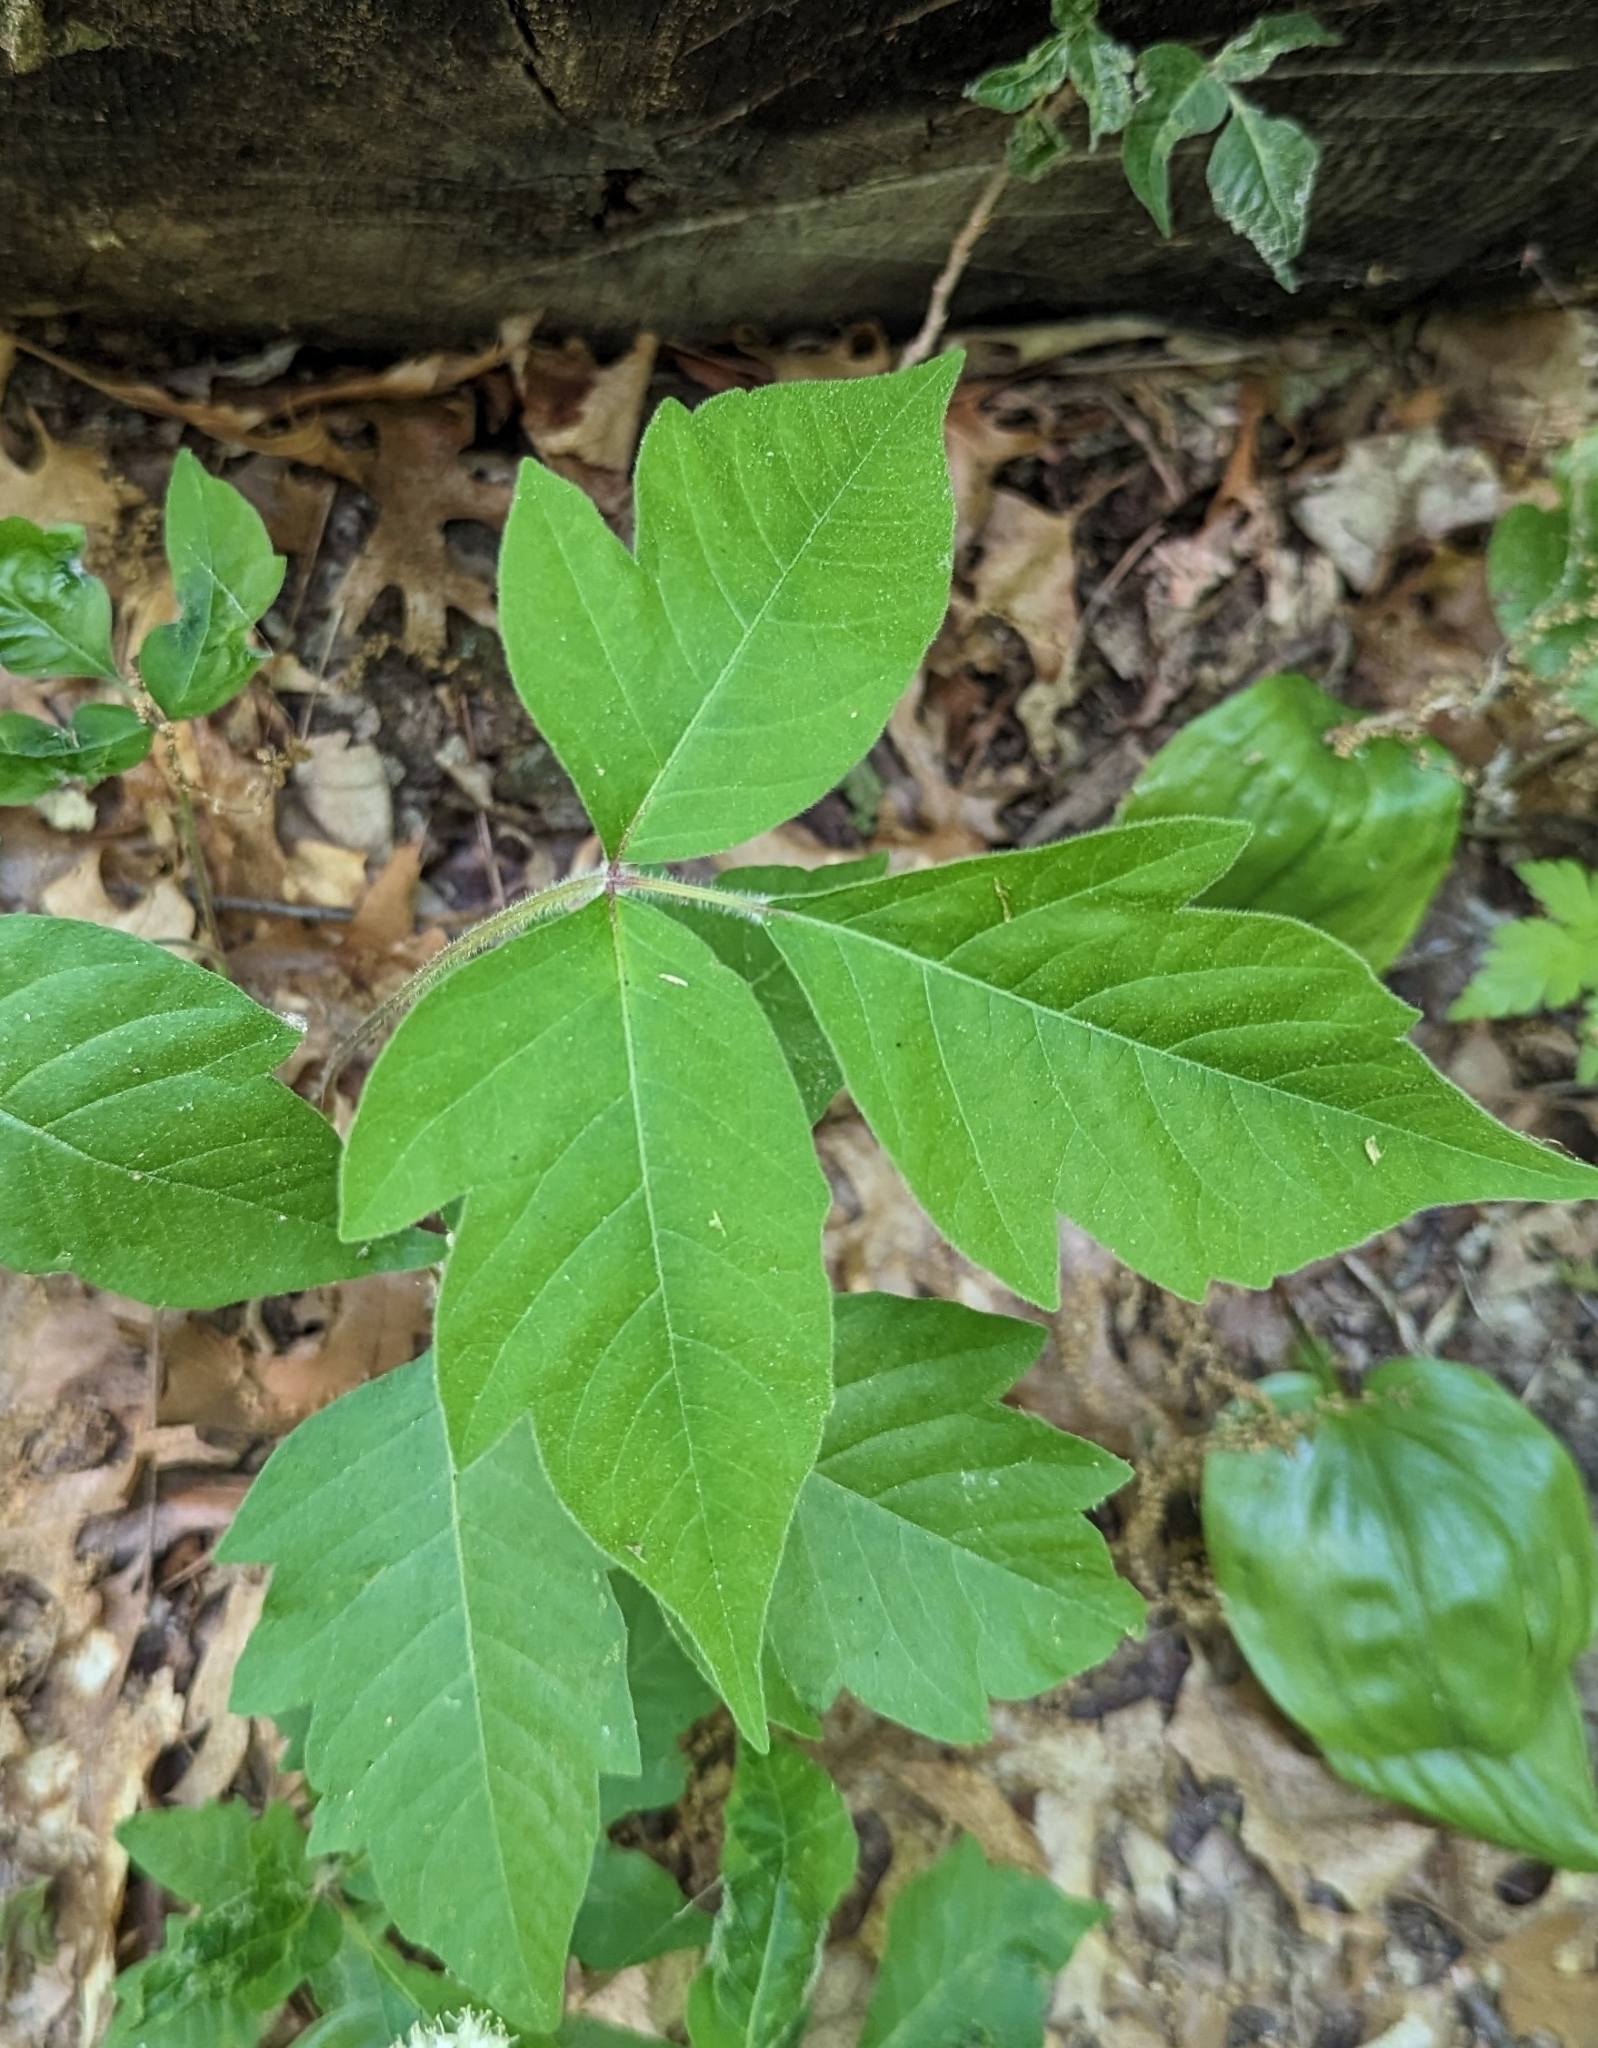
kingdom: Plantae
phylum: Tracheophyta
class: Magnoliopsida
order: Sapindales
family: Anacardiaceae
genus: Toxicodendron
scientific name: Toxicodendron radicans
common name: Poison ivy
